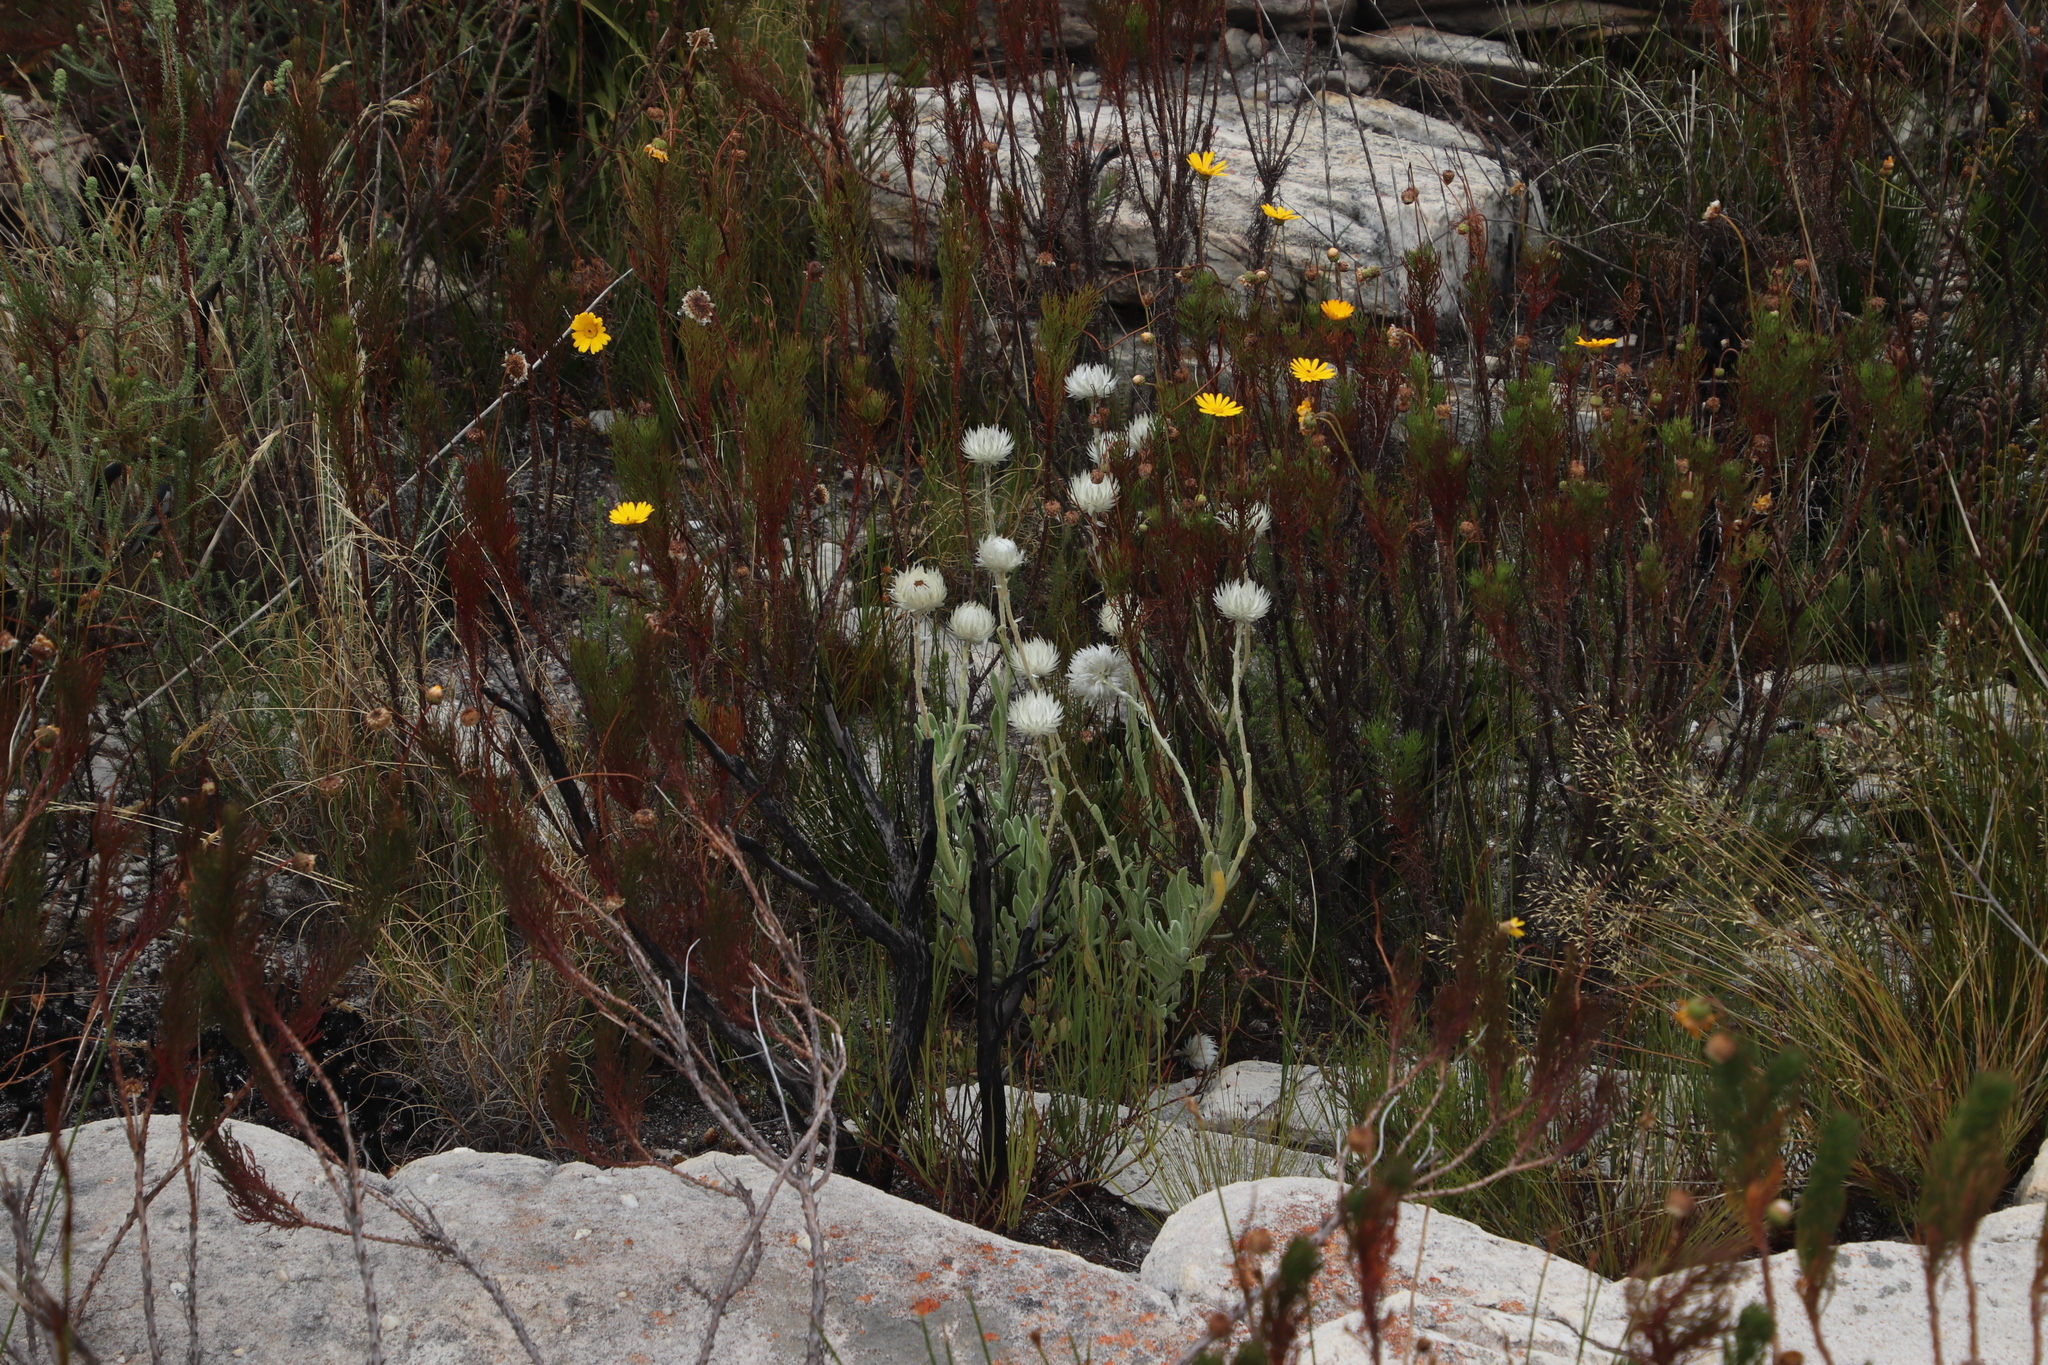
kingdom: Plantae
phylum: Tracheophyta
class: Magnoliopsida
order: Asterales
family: Asteraceae
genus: Syncarpha
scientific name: Syncarpha vestita
